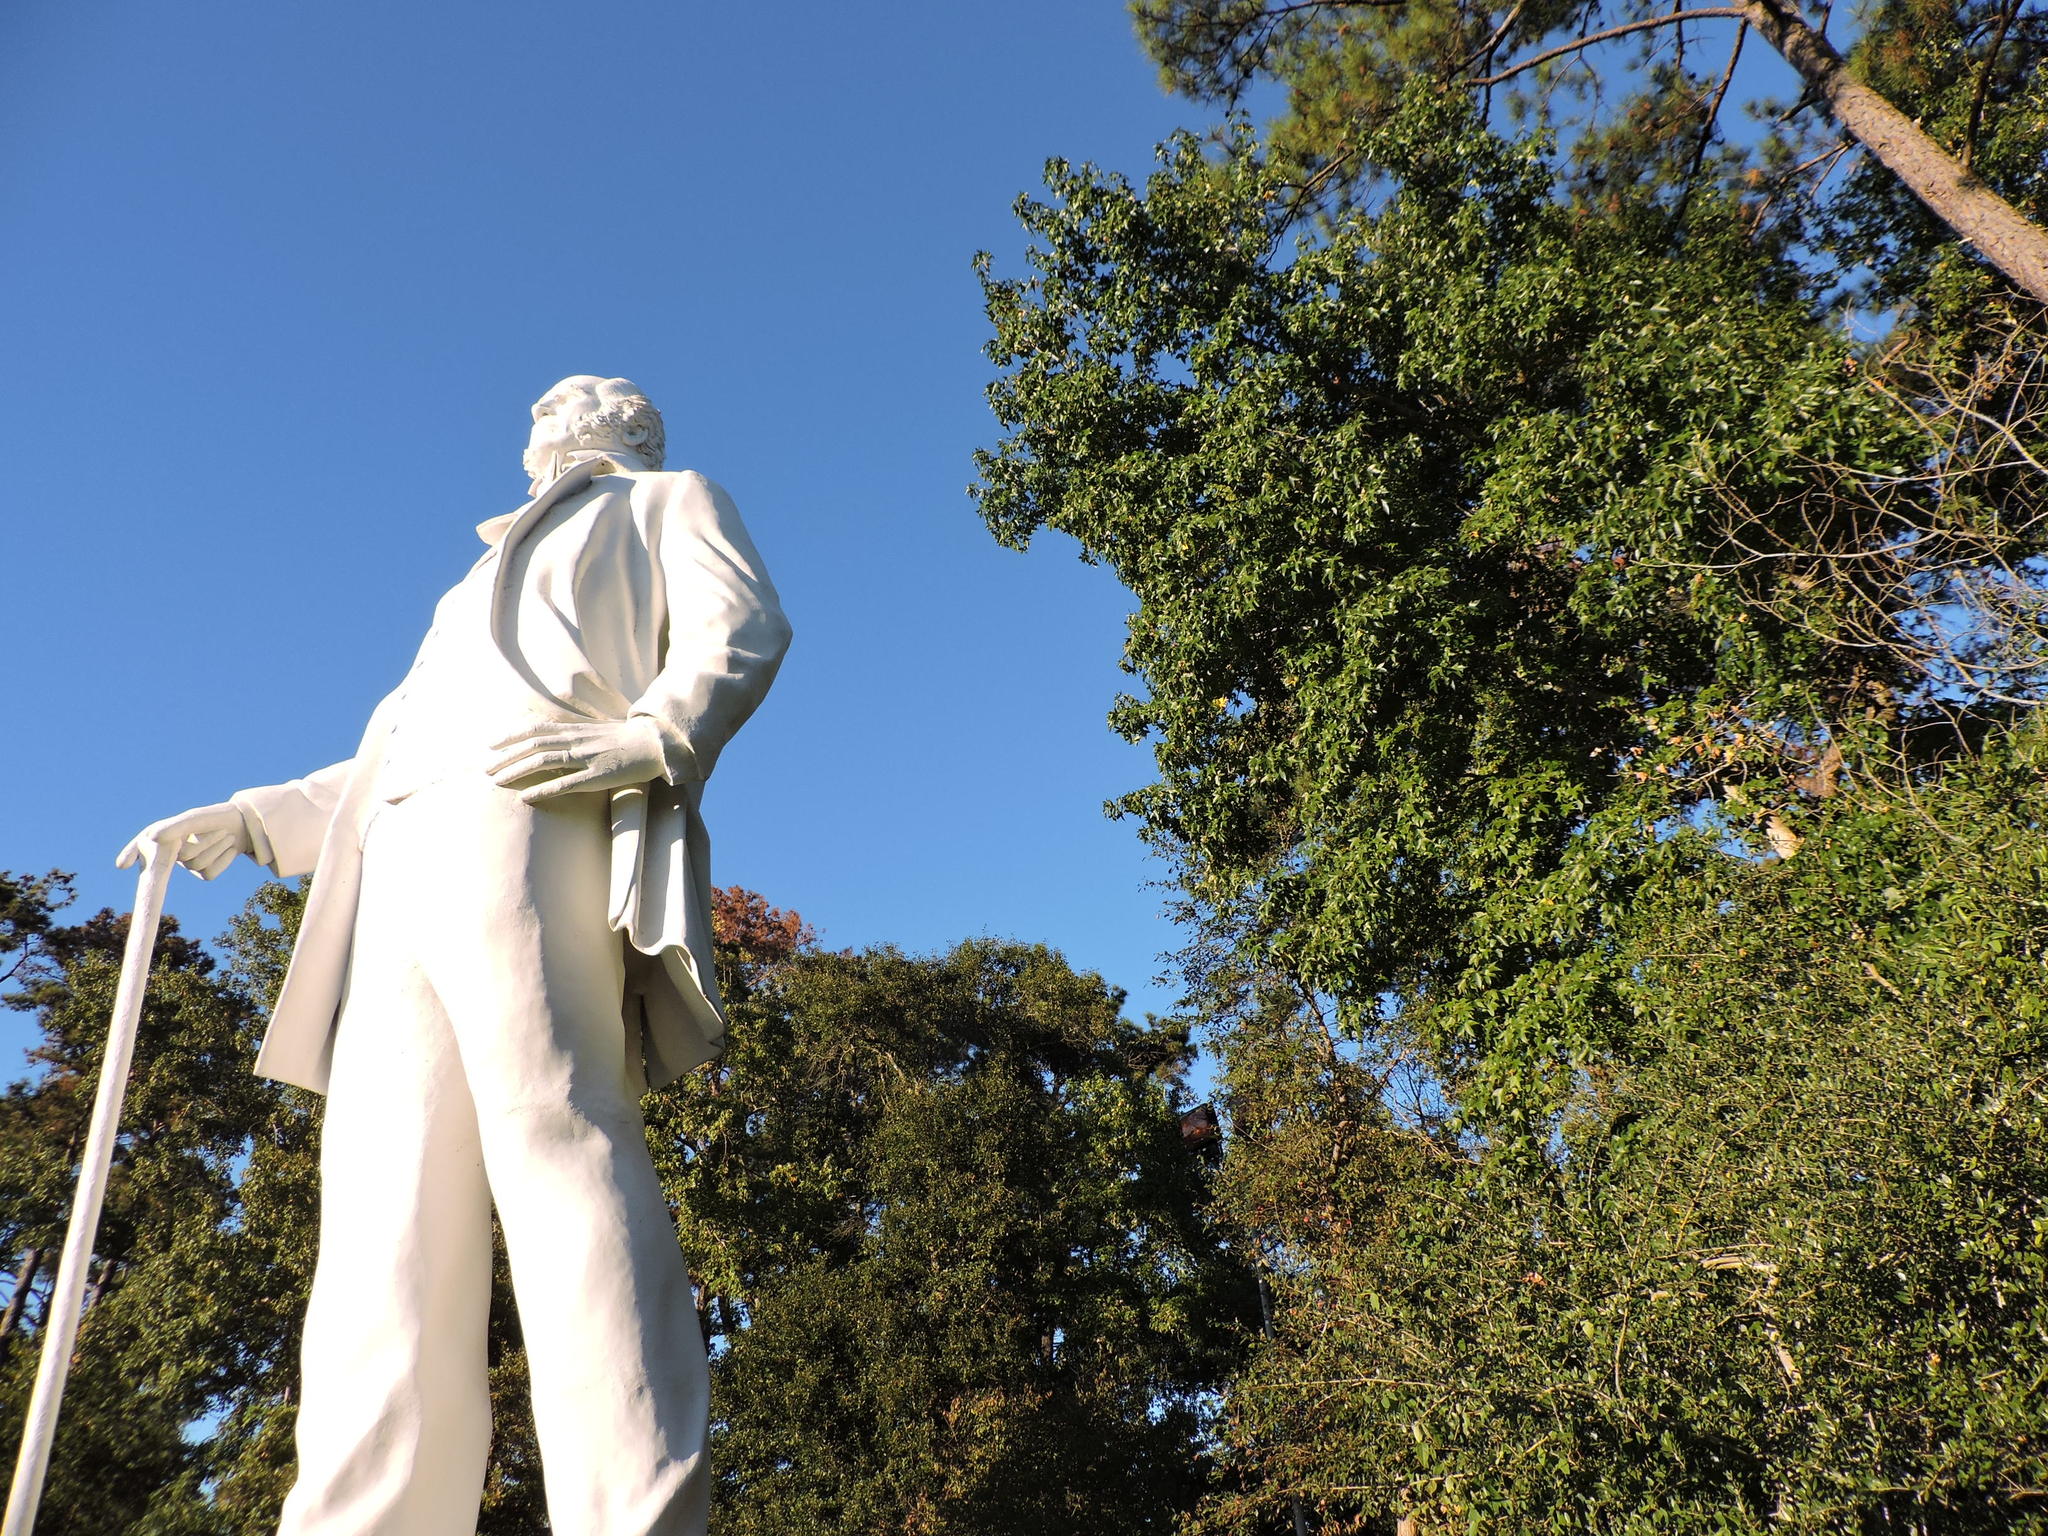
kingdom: Plantae
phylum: Tracheophyta
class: Magnoliopsida
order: Saxifragales
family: Altingiaceae
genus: Liquidambar
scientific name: Liquidambar styraciflua
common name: Sweet gum
